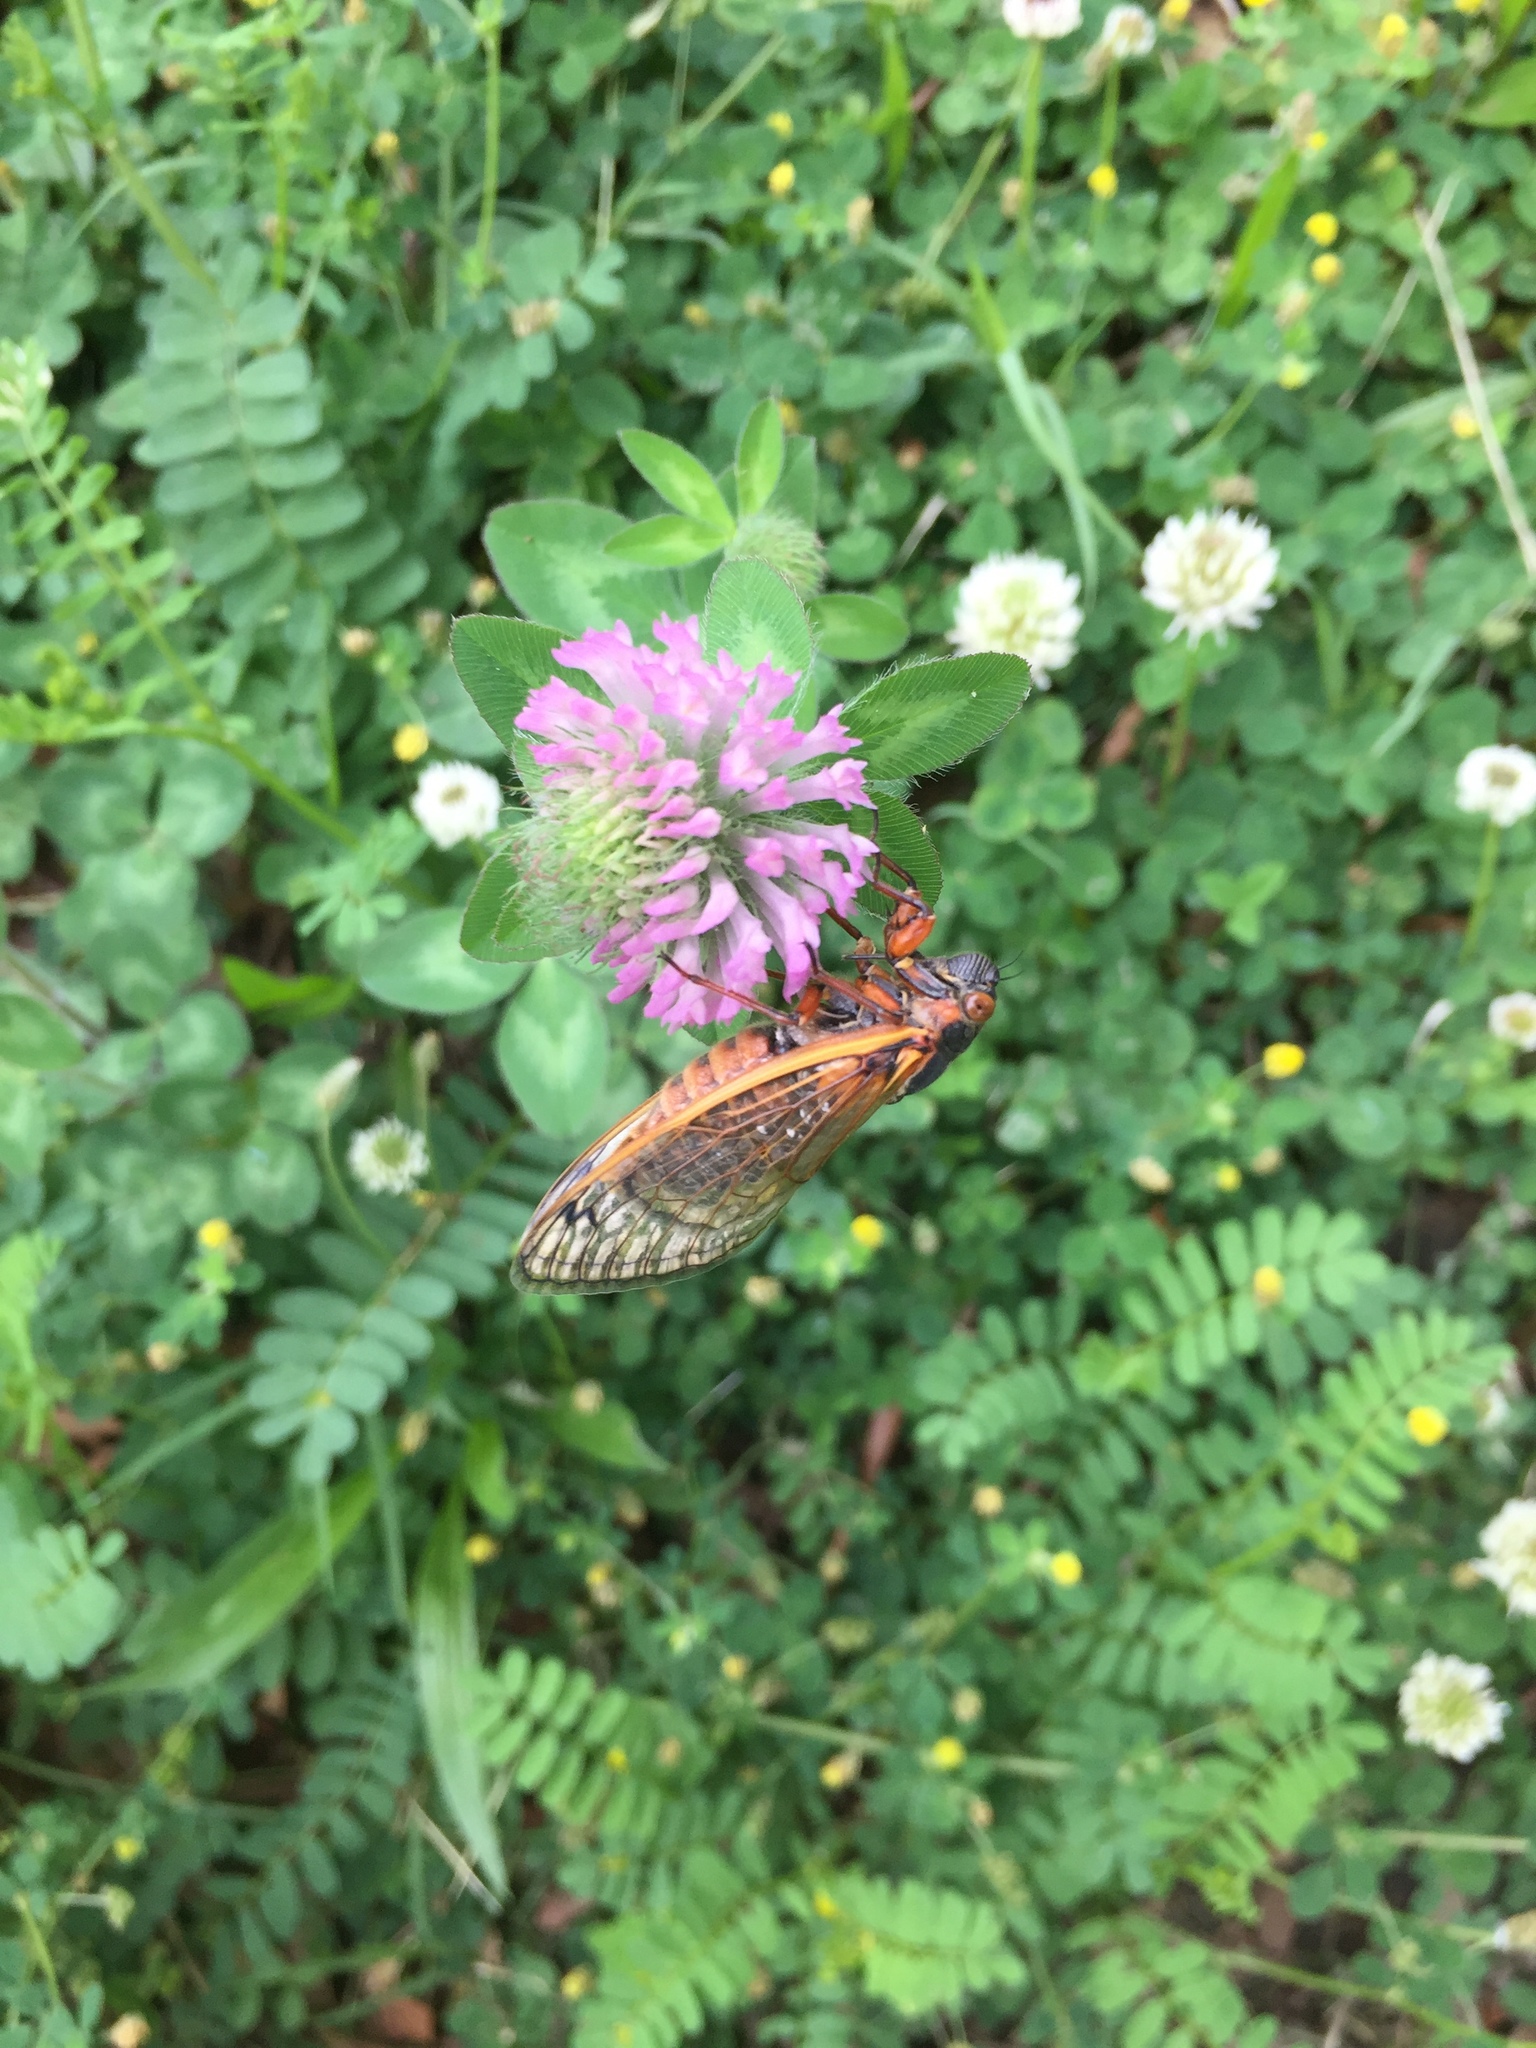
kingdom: Animalia
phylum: Arthropoda
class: Insecta
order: Hemiptera
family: Cicadidae
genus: Magicicada
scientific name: Magicicada septendecim
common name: Periodical cicada
